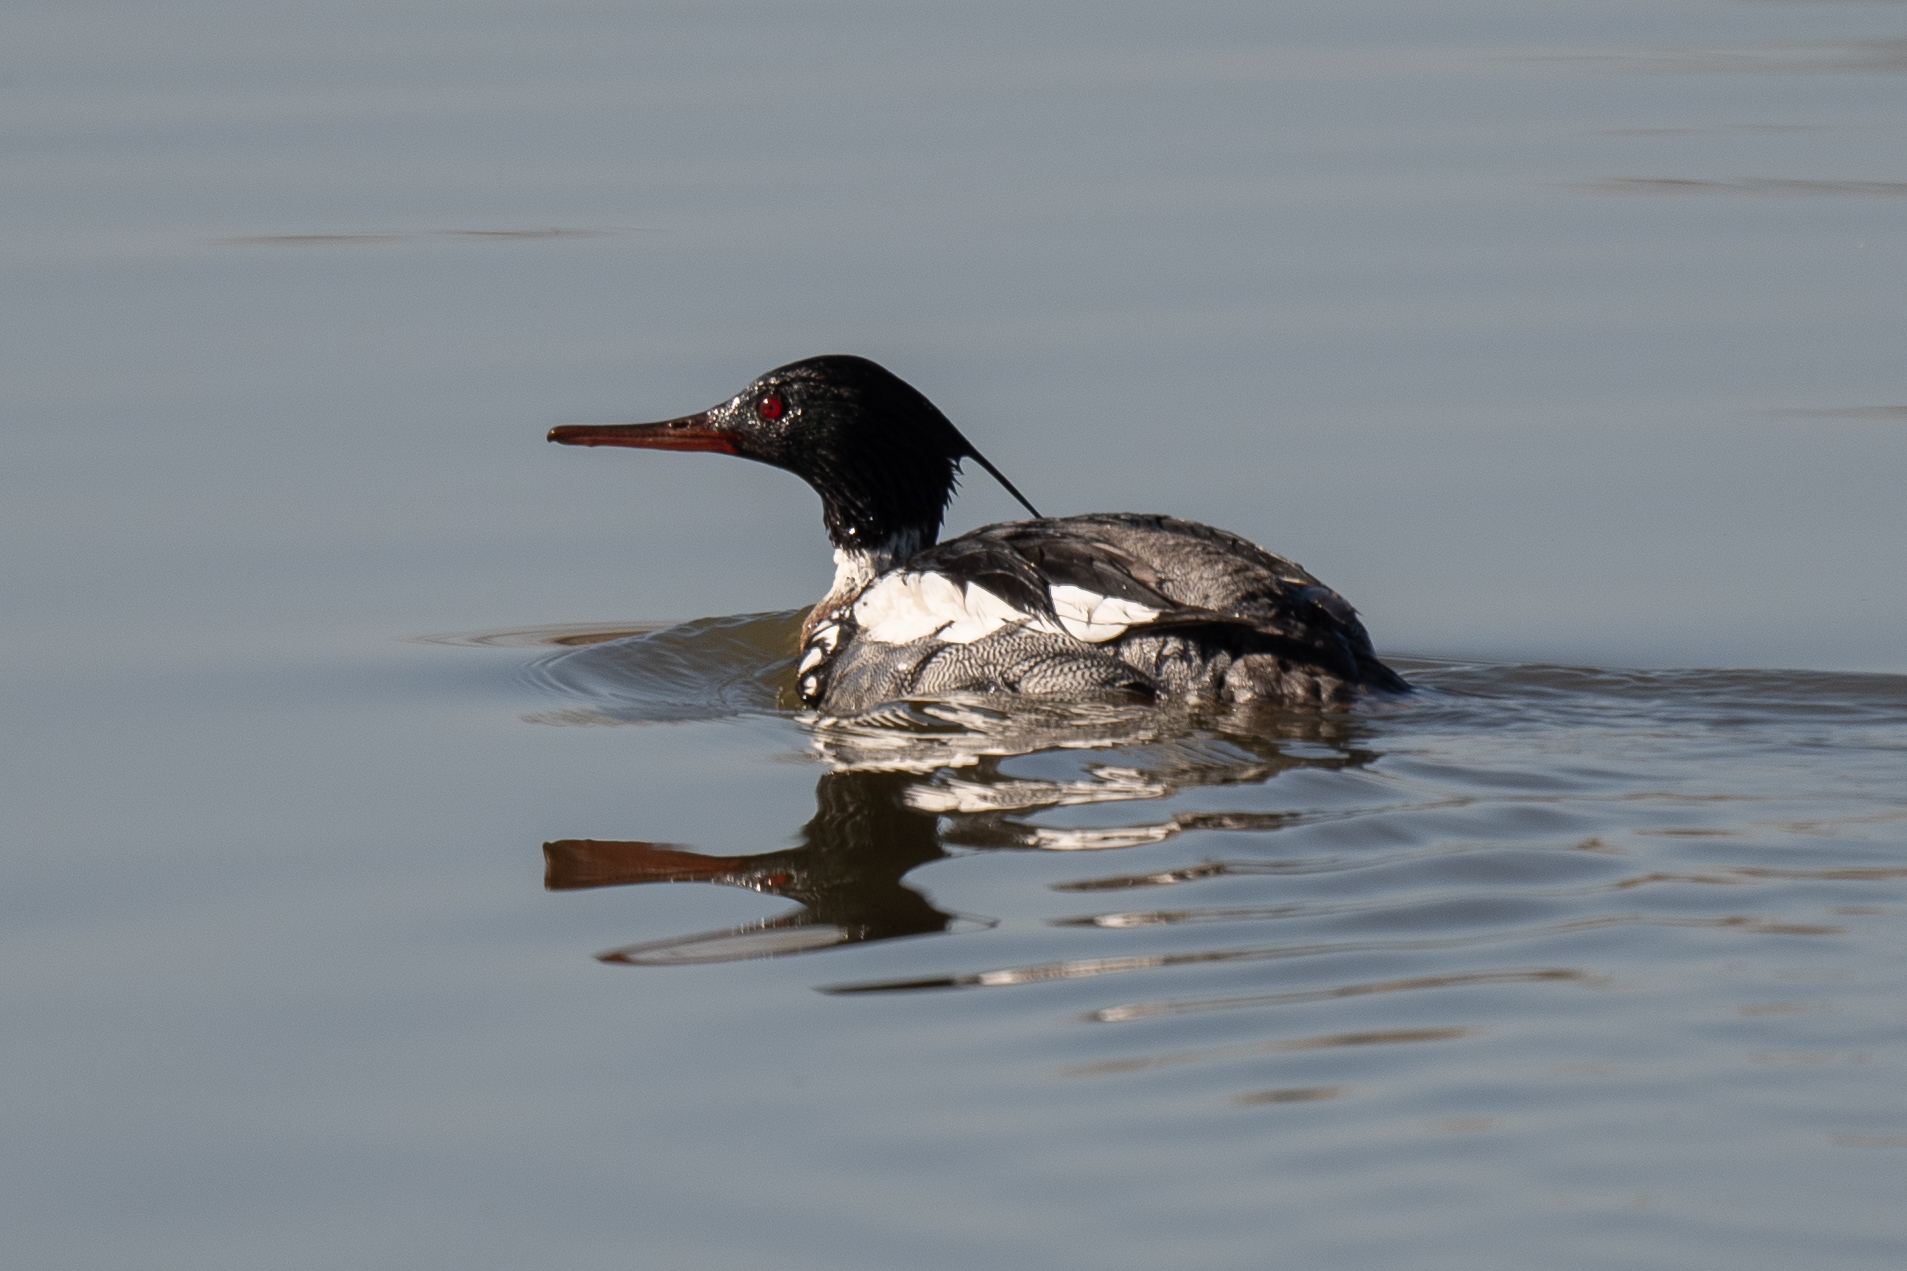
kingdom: Animalia
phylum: Chordata
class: Aves
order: Anseriformes
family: Anatidae
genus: Mergus
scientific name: Mergus serrator
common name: Red-breasted merganser
